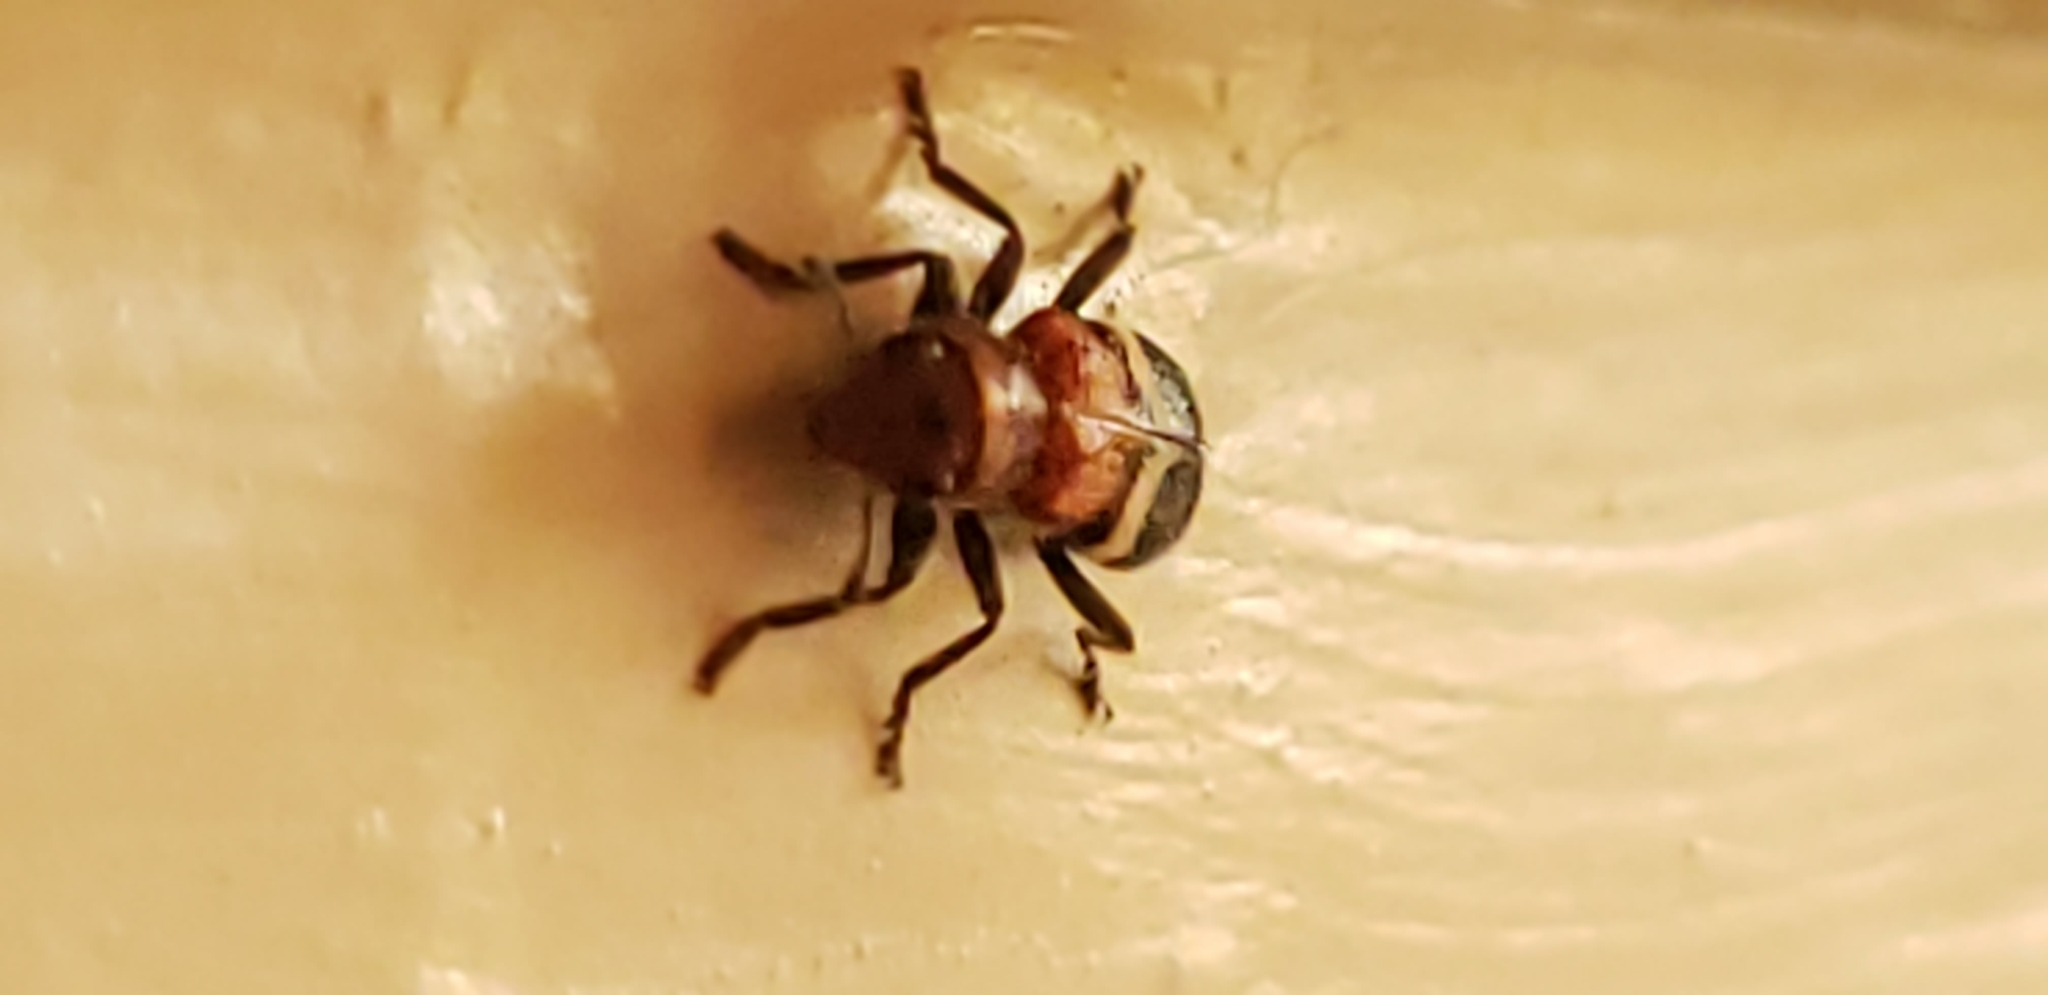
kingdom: Animalia
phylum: Arthropoda
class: Insecta
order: Coleoptera
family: Cleridae
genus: Enoclerus
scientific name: Enoclerus nigripes
